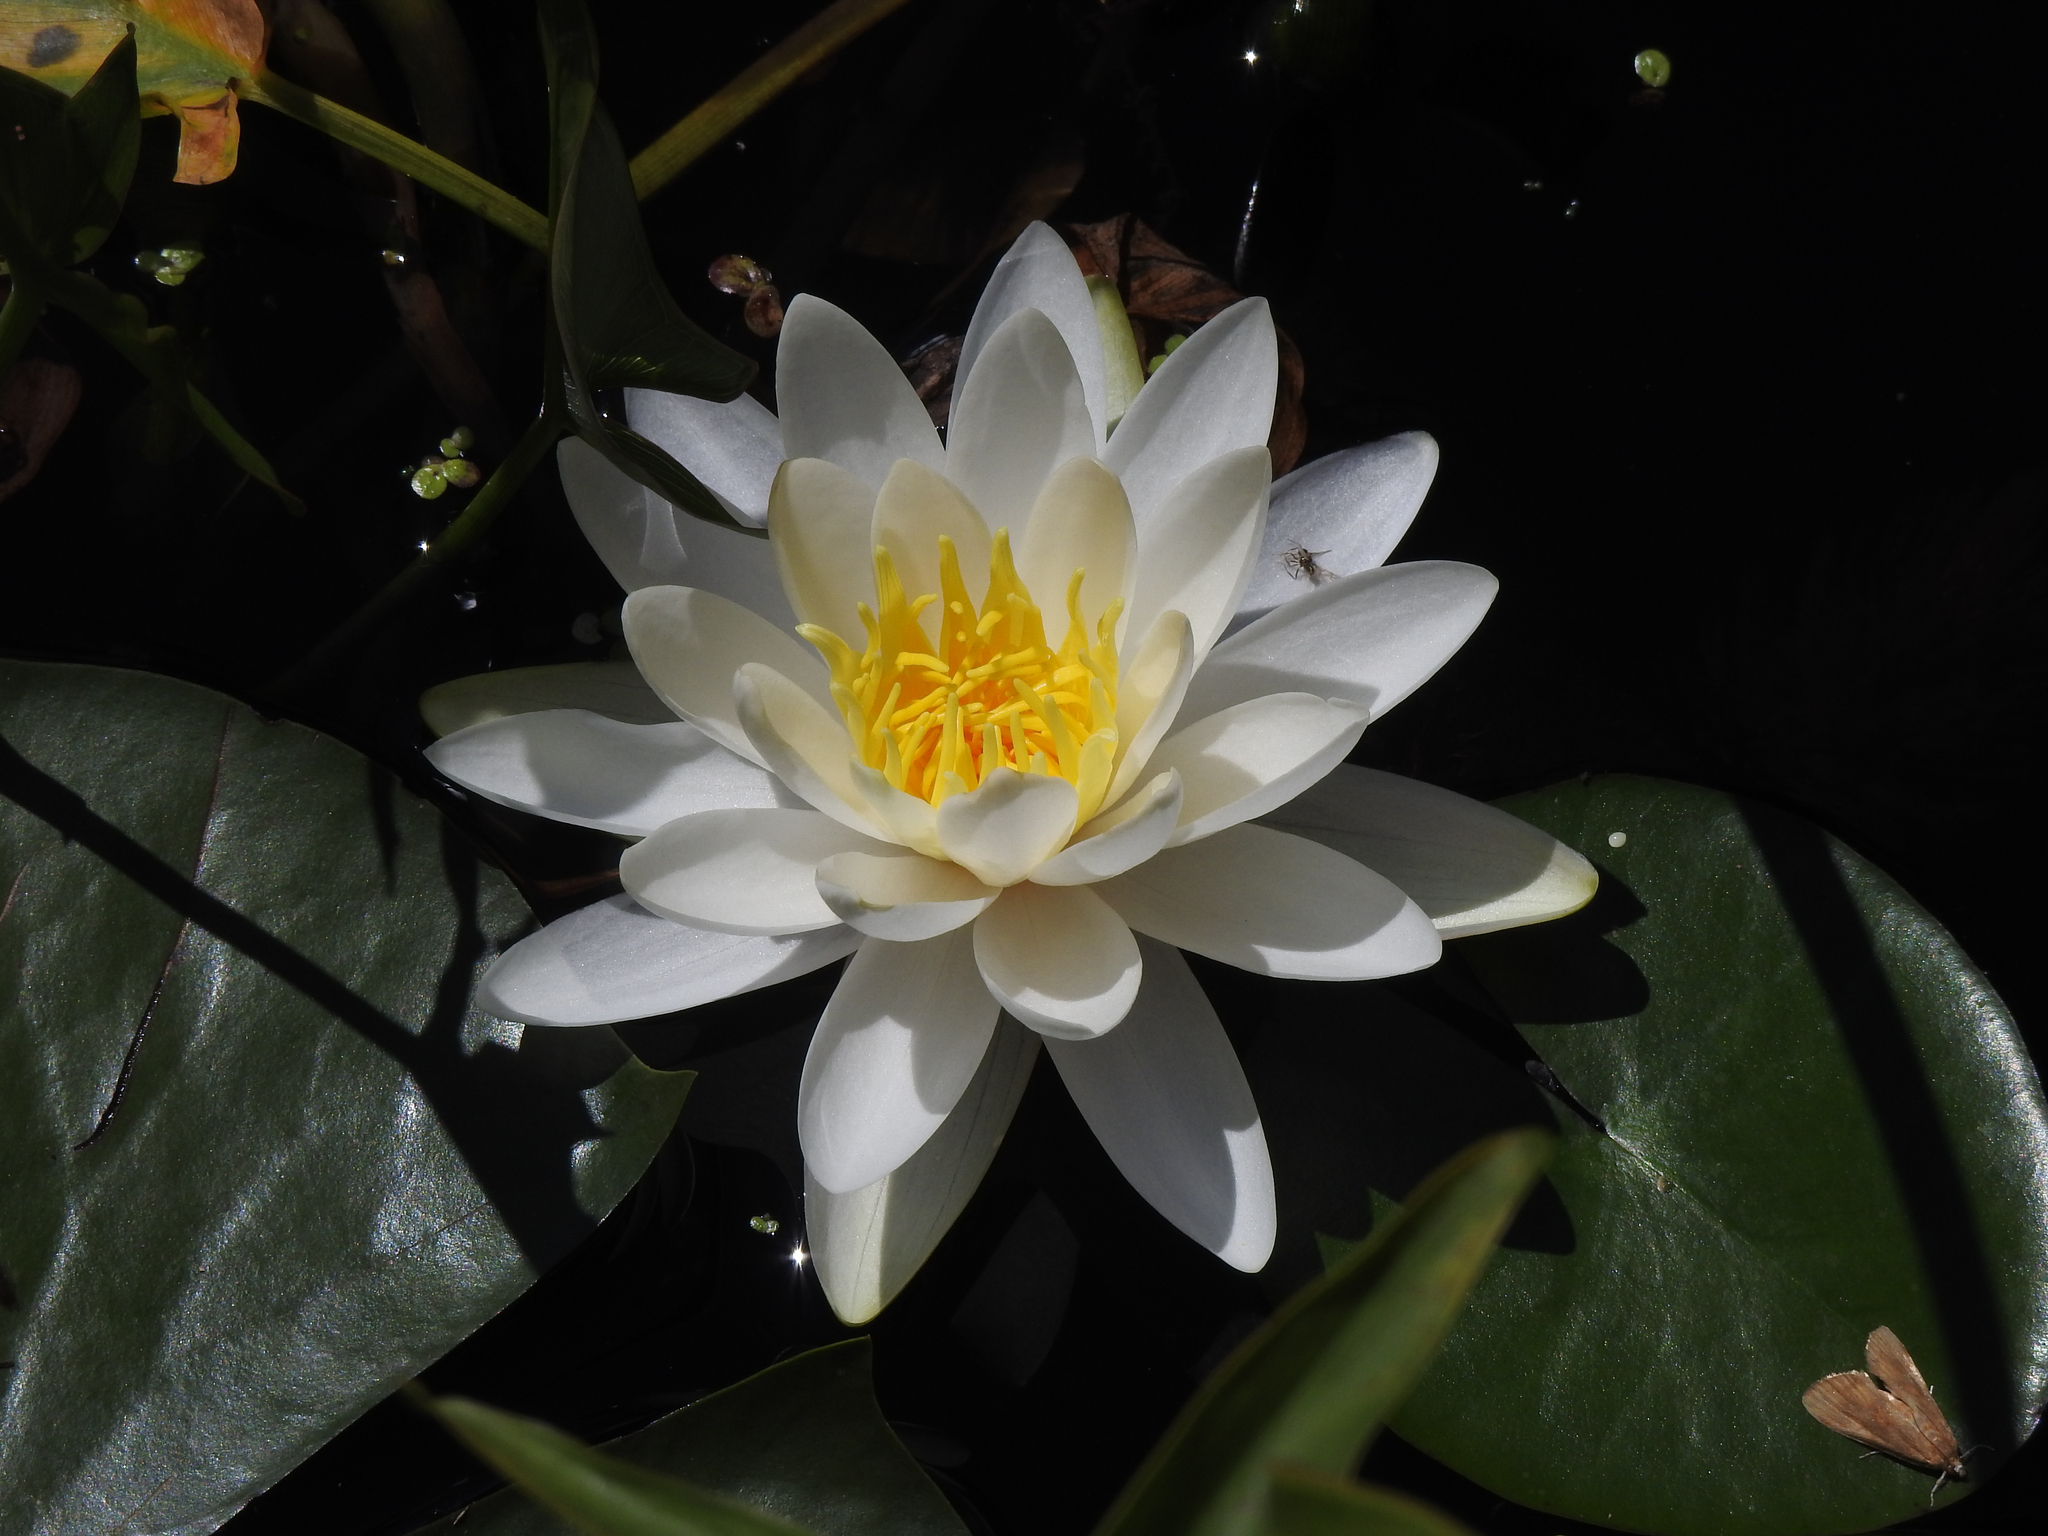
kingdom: Plantae
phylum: Tracheophyta
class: Magnoliopsida
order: Nymphaeales
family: Nymphaeaceae
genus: Nymphaea
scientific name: Nymphaea odorata
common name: Fragrant water-lily
